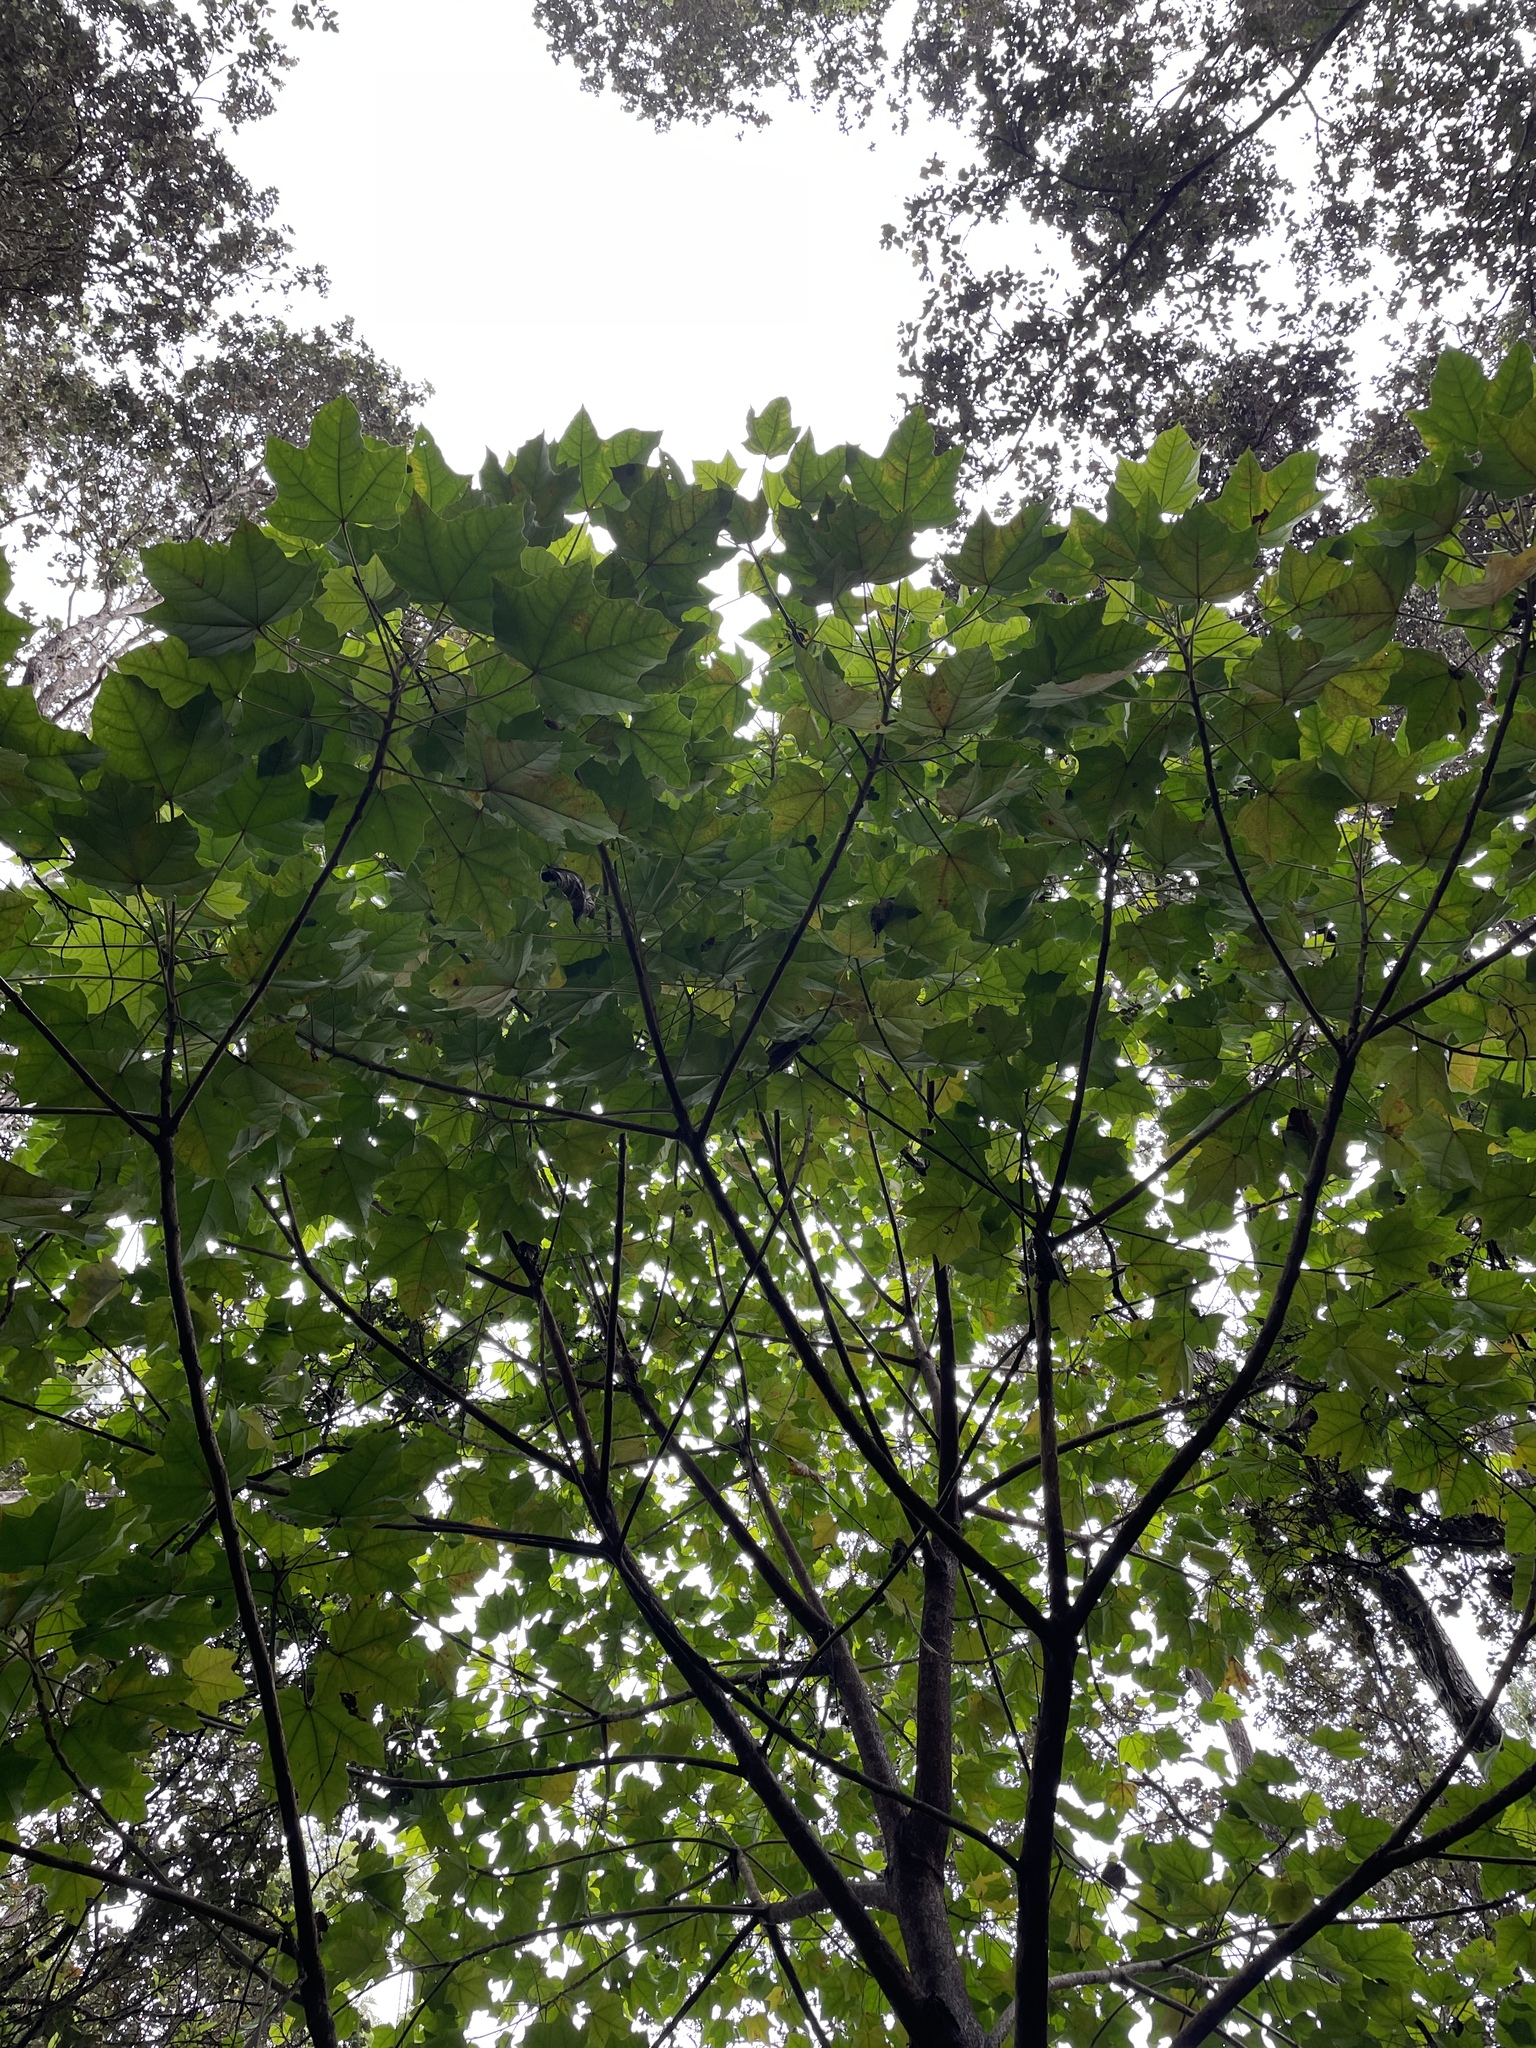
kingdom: Plantae
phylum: Tracheophyta
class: Magnoliopsida
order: Malvales
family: Malvaceae
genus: Kokia
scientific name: Kokia drynarioides
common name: Hawaiian tree cotton
